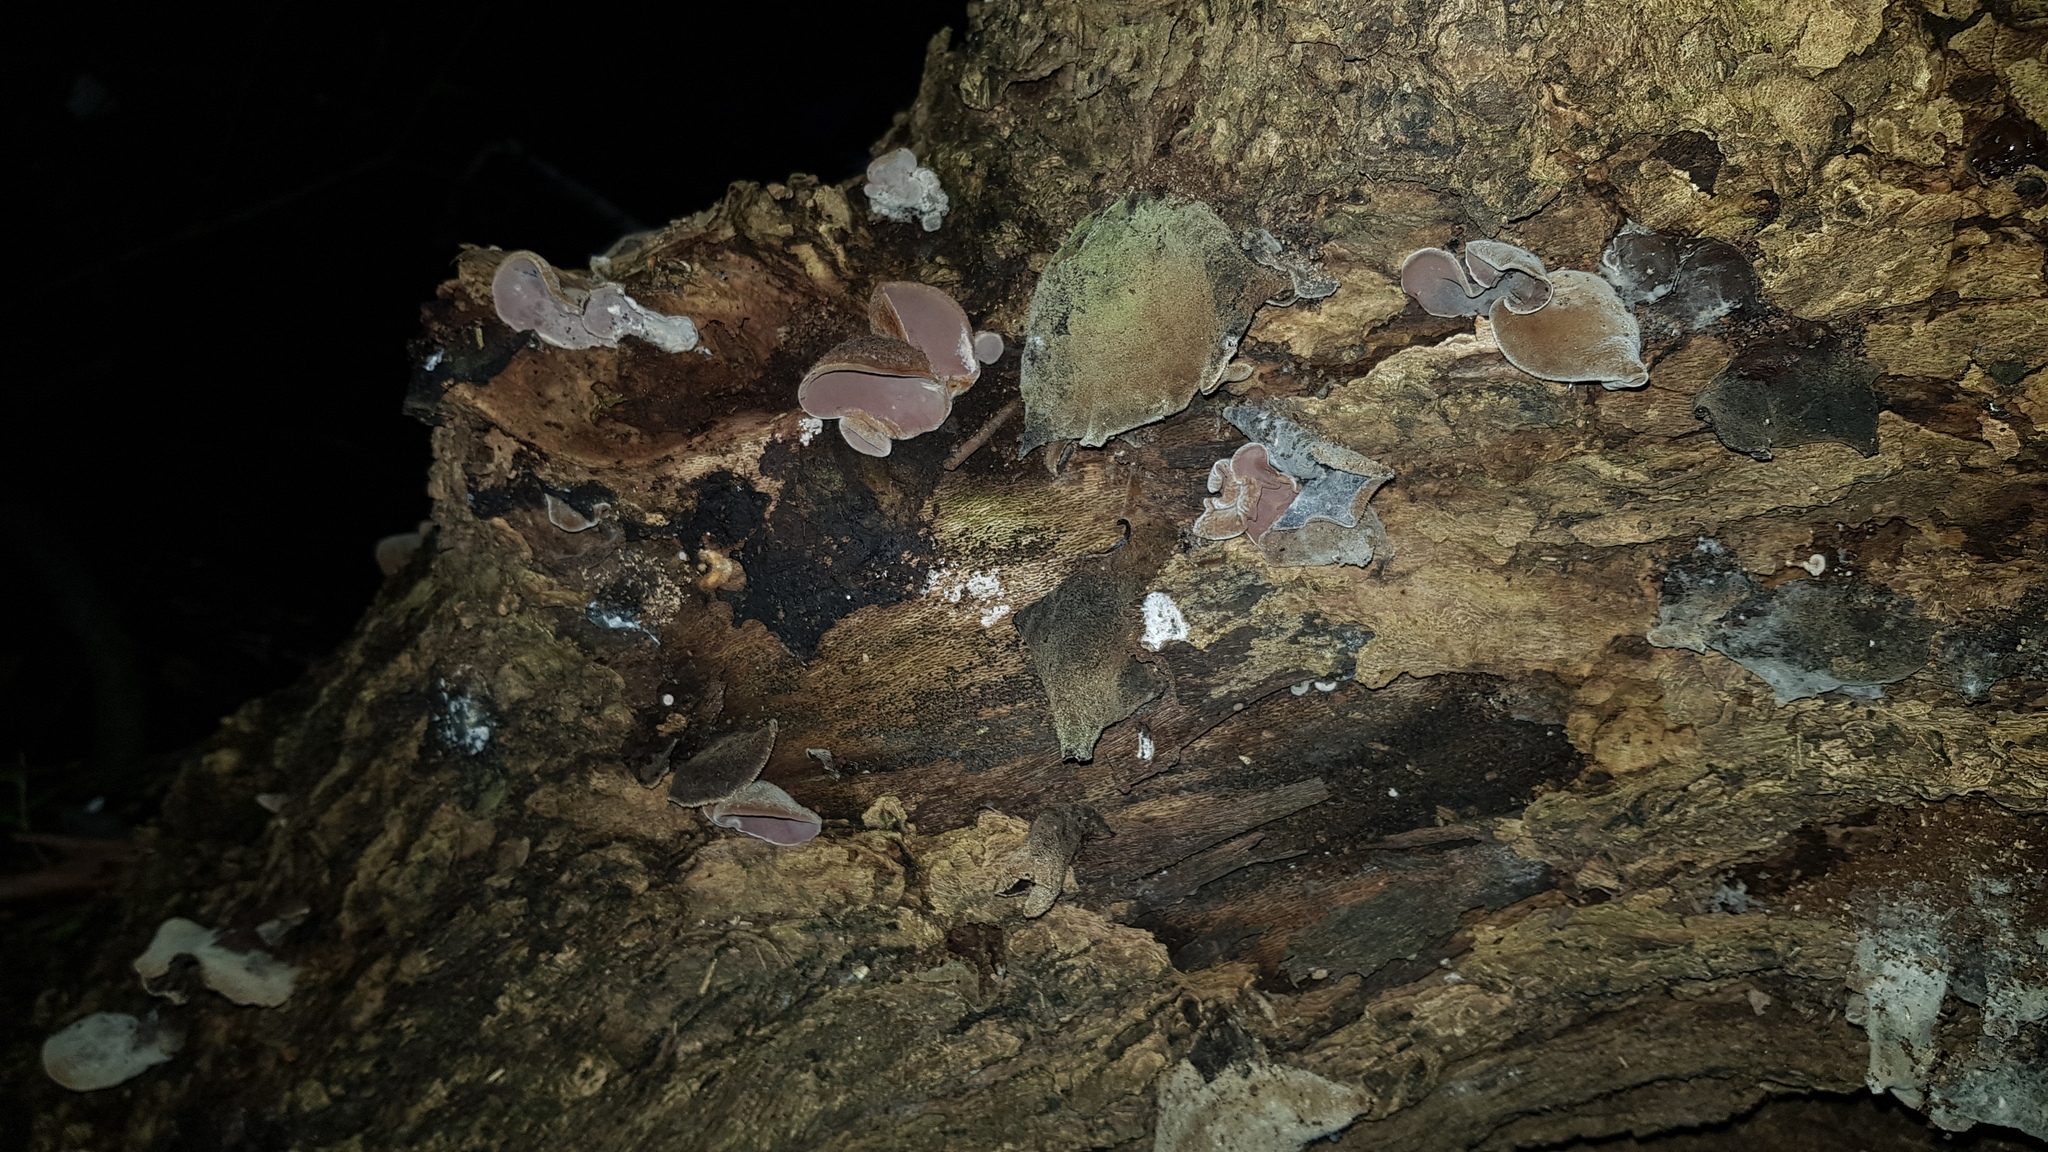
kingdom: Fungi
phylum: Basidiomycota
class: Agaricomycetes
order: Auriculariales
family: Auriculariaceae
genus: Auricularia
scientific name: Auricularia cornea
